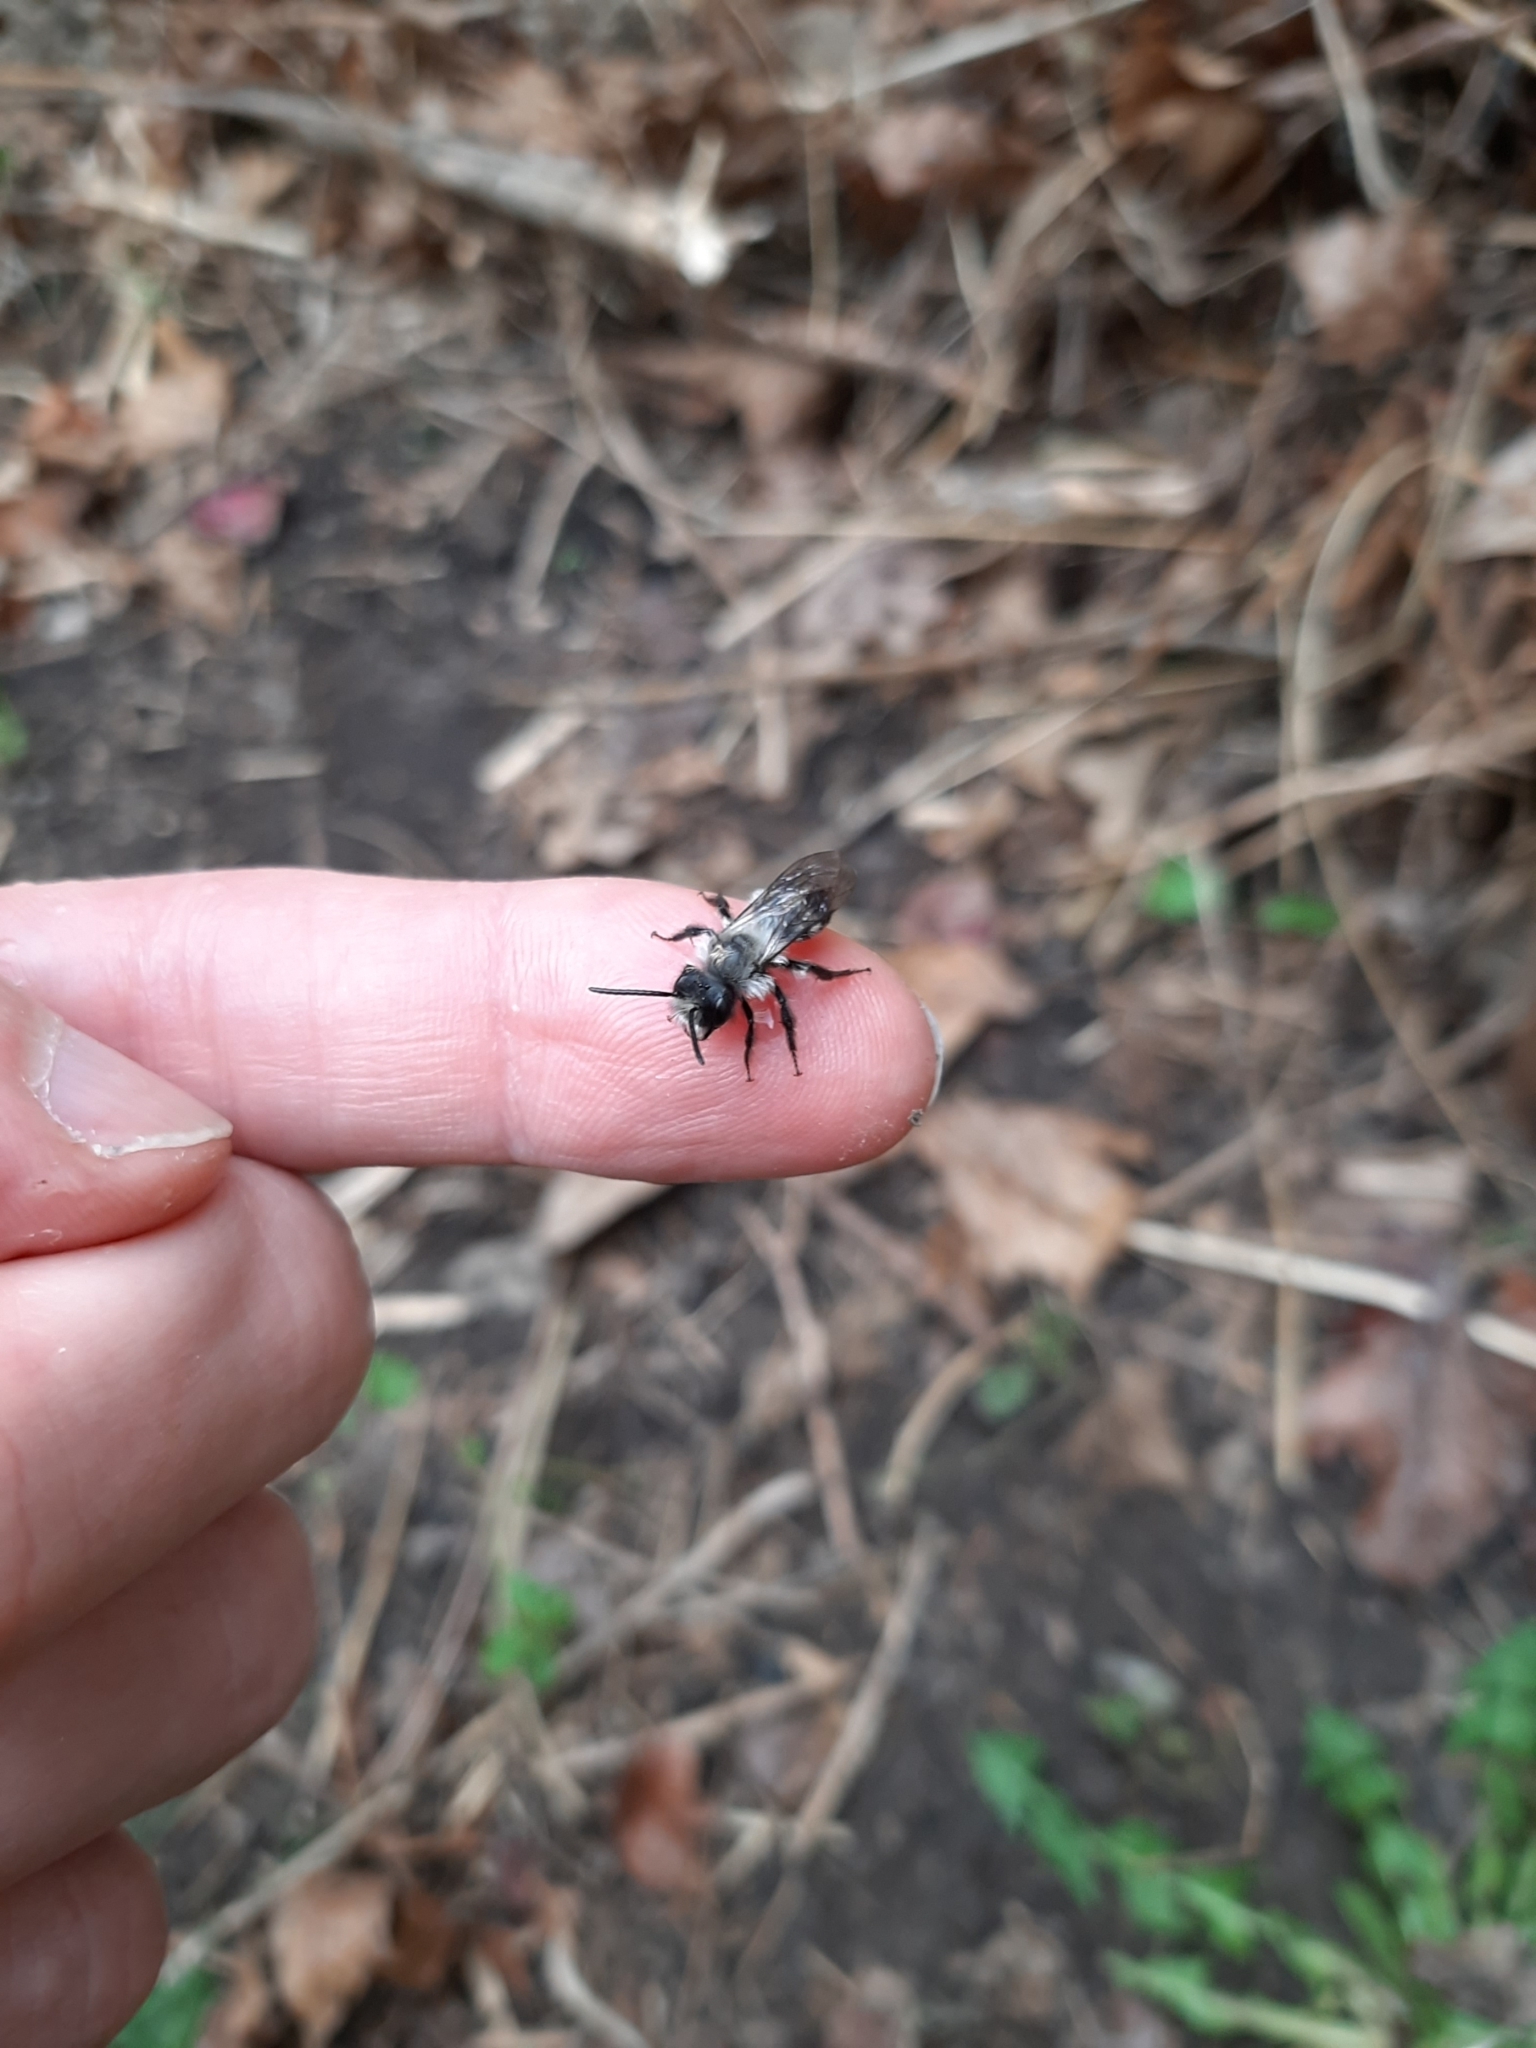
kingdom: Animalia
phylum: Arthropoda
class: Insecta
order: Hymenoptera
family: Andrenidae
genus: Andrena
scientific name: Andrena cineraria
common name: Ashy mining bee
